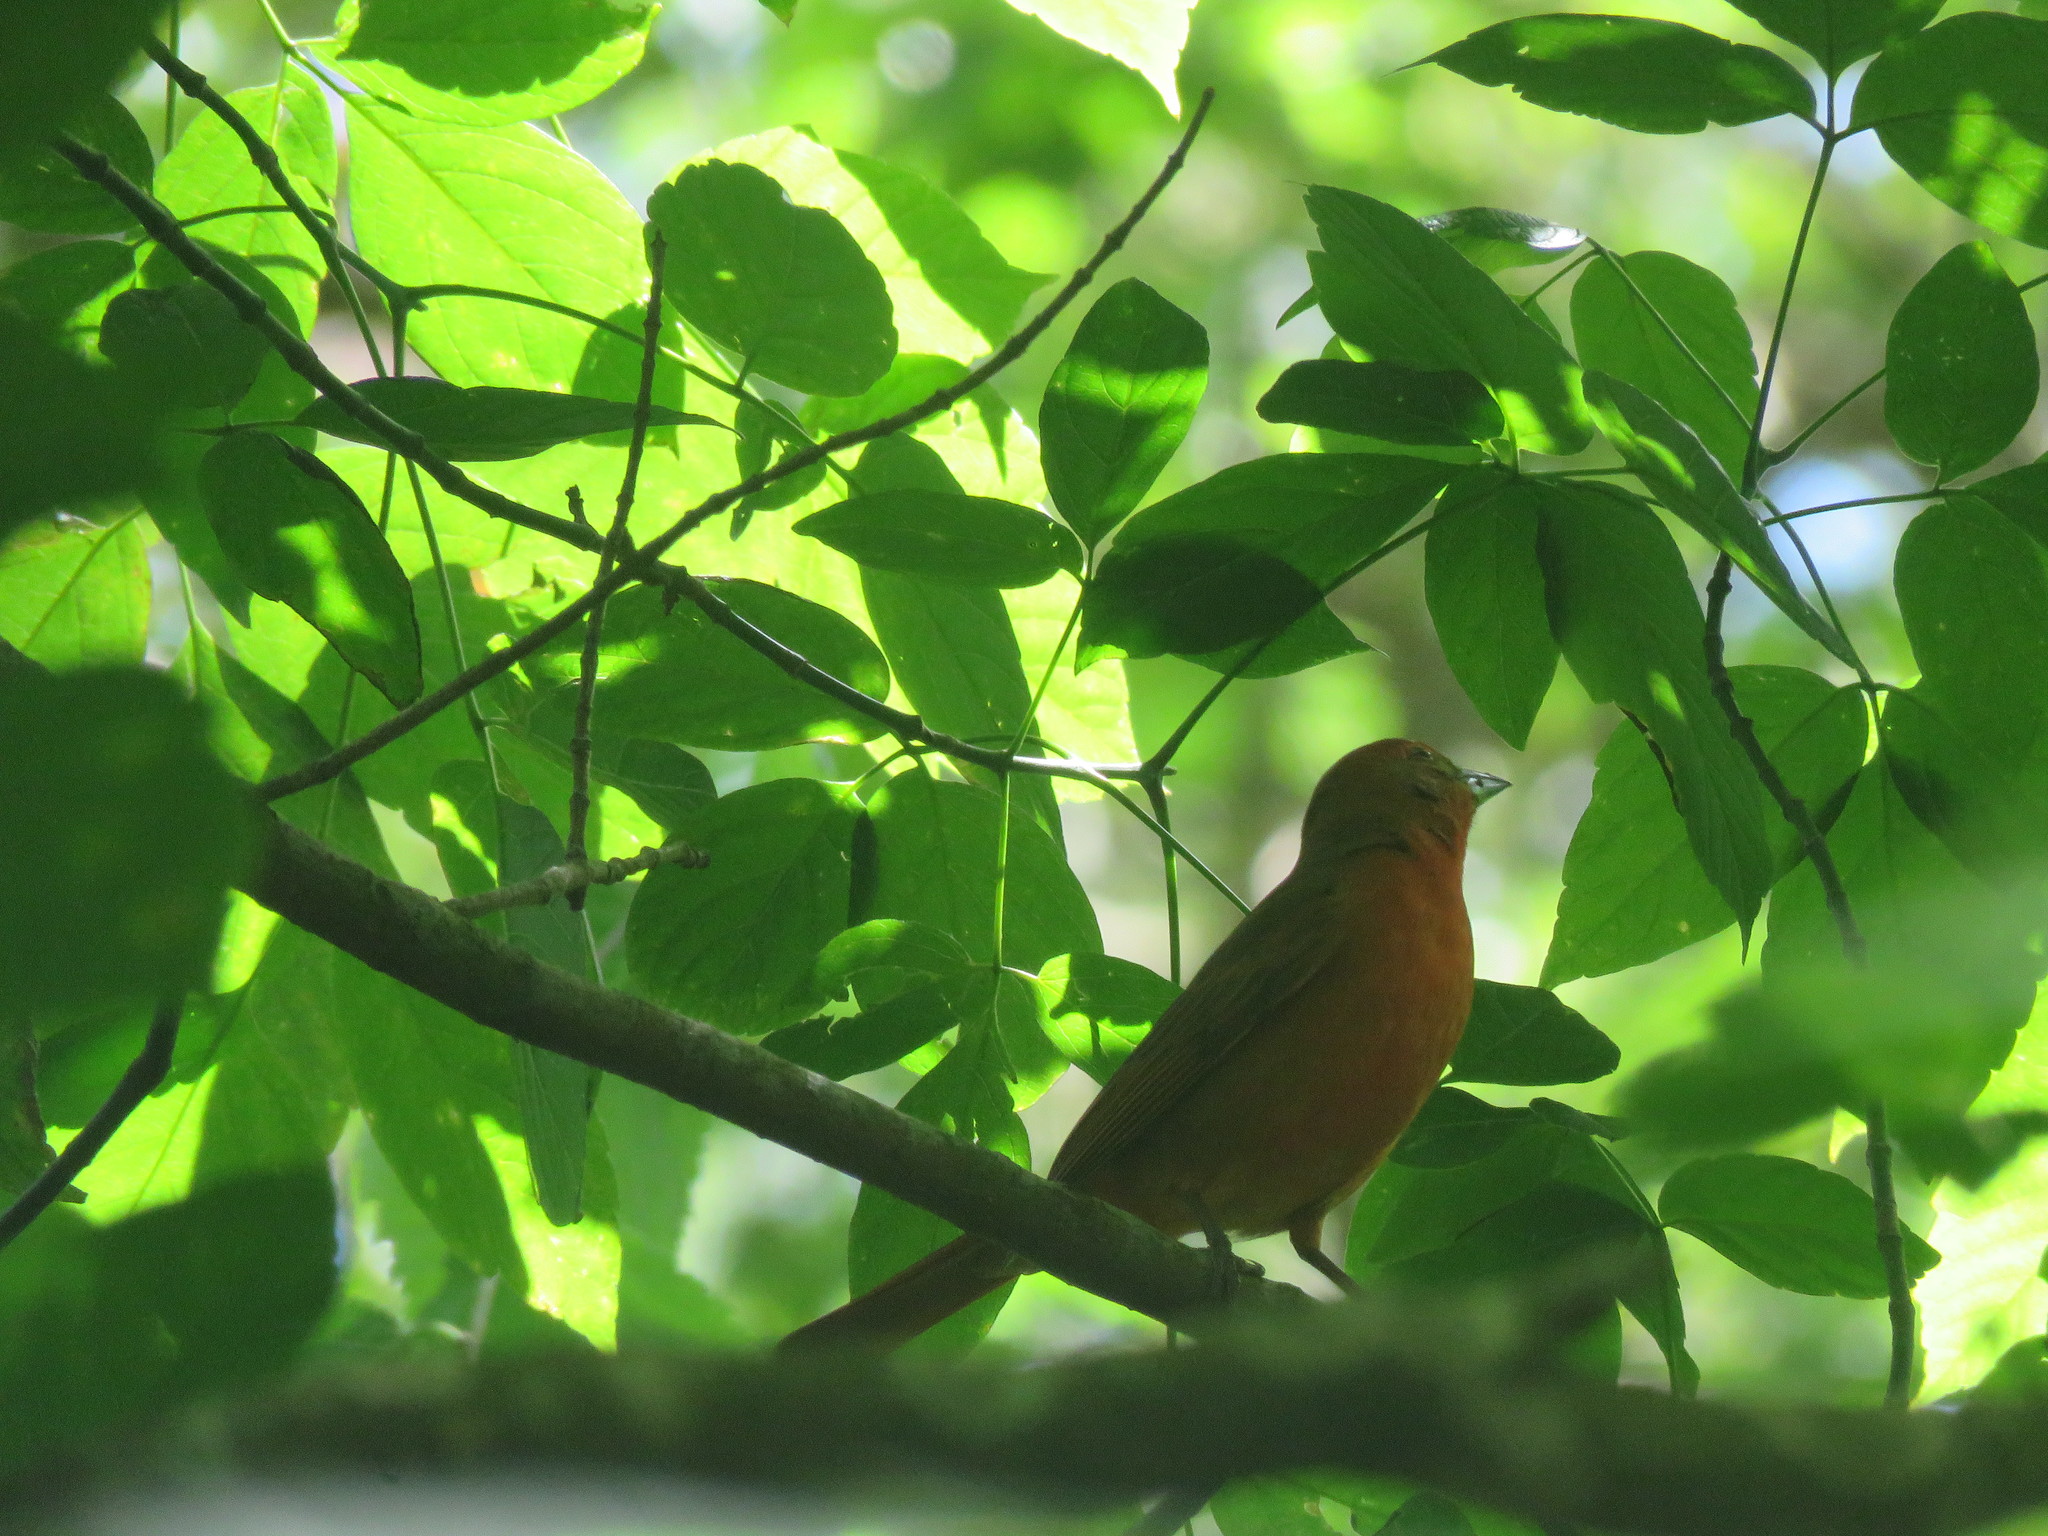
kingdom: Animalia
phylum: Chordata
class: Aves
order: Passeriformes
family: Cardinalidae
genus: Piranga
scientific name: Piranga flava
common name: Red tanager
